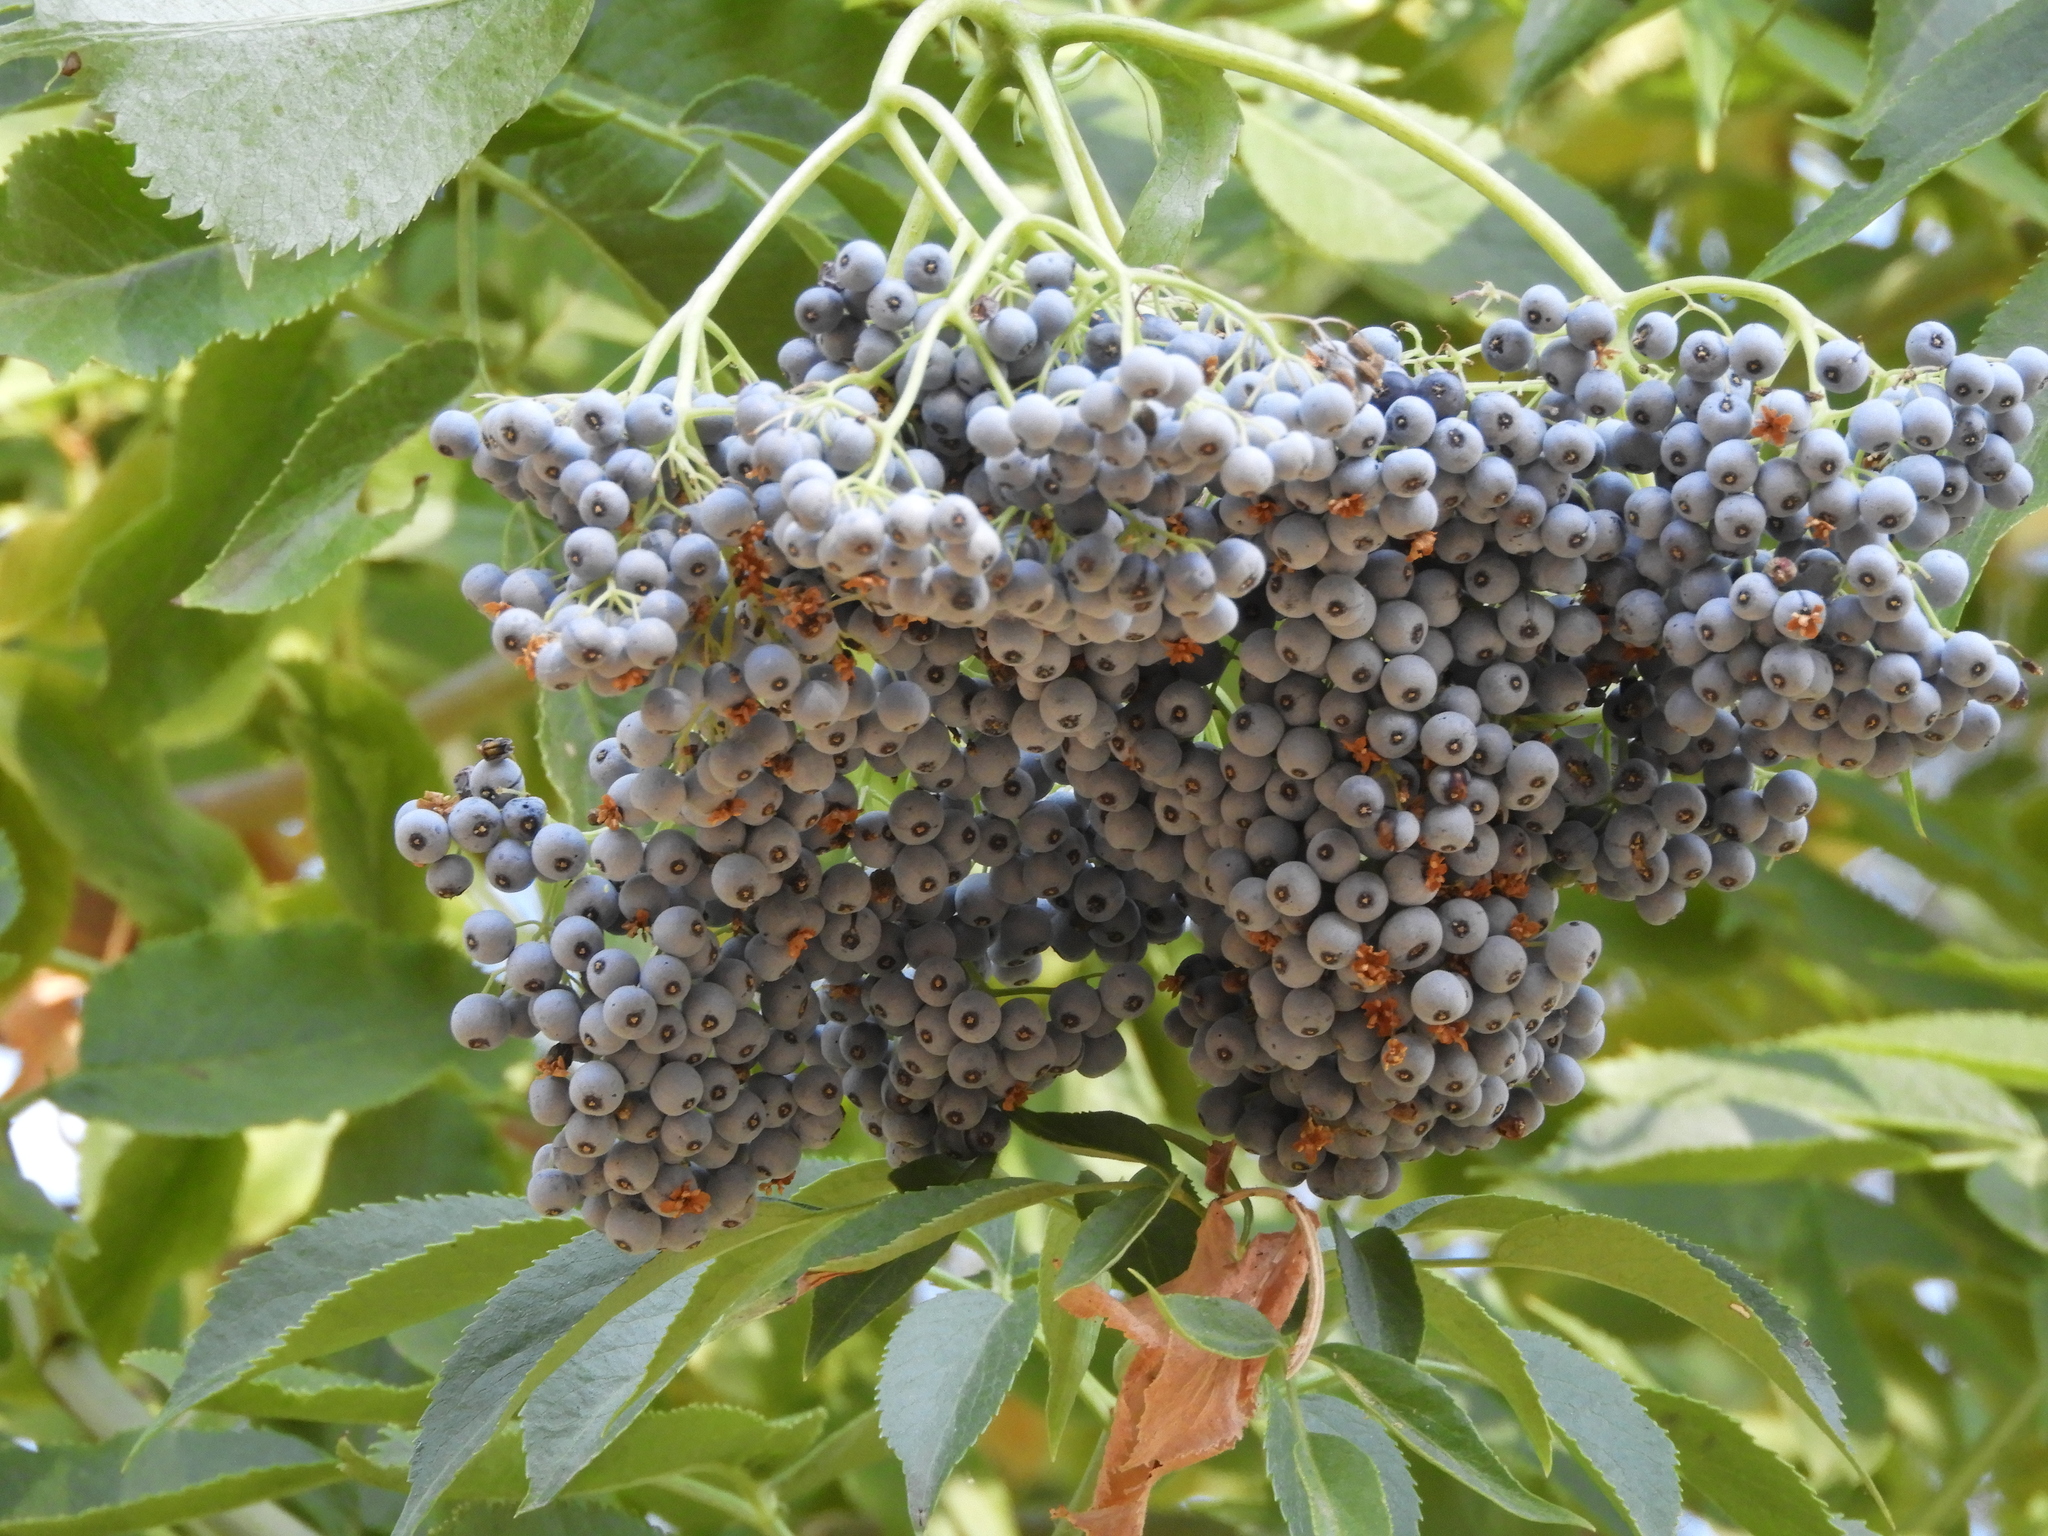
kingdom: Plantae
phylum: Tracheophyta
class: Magnoliopsida
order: Dipsacales
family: Viburnaceae
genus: Sambucus
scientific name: Sambucus cerulea
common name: Blue elder
